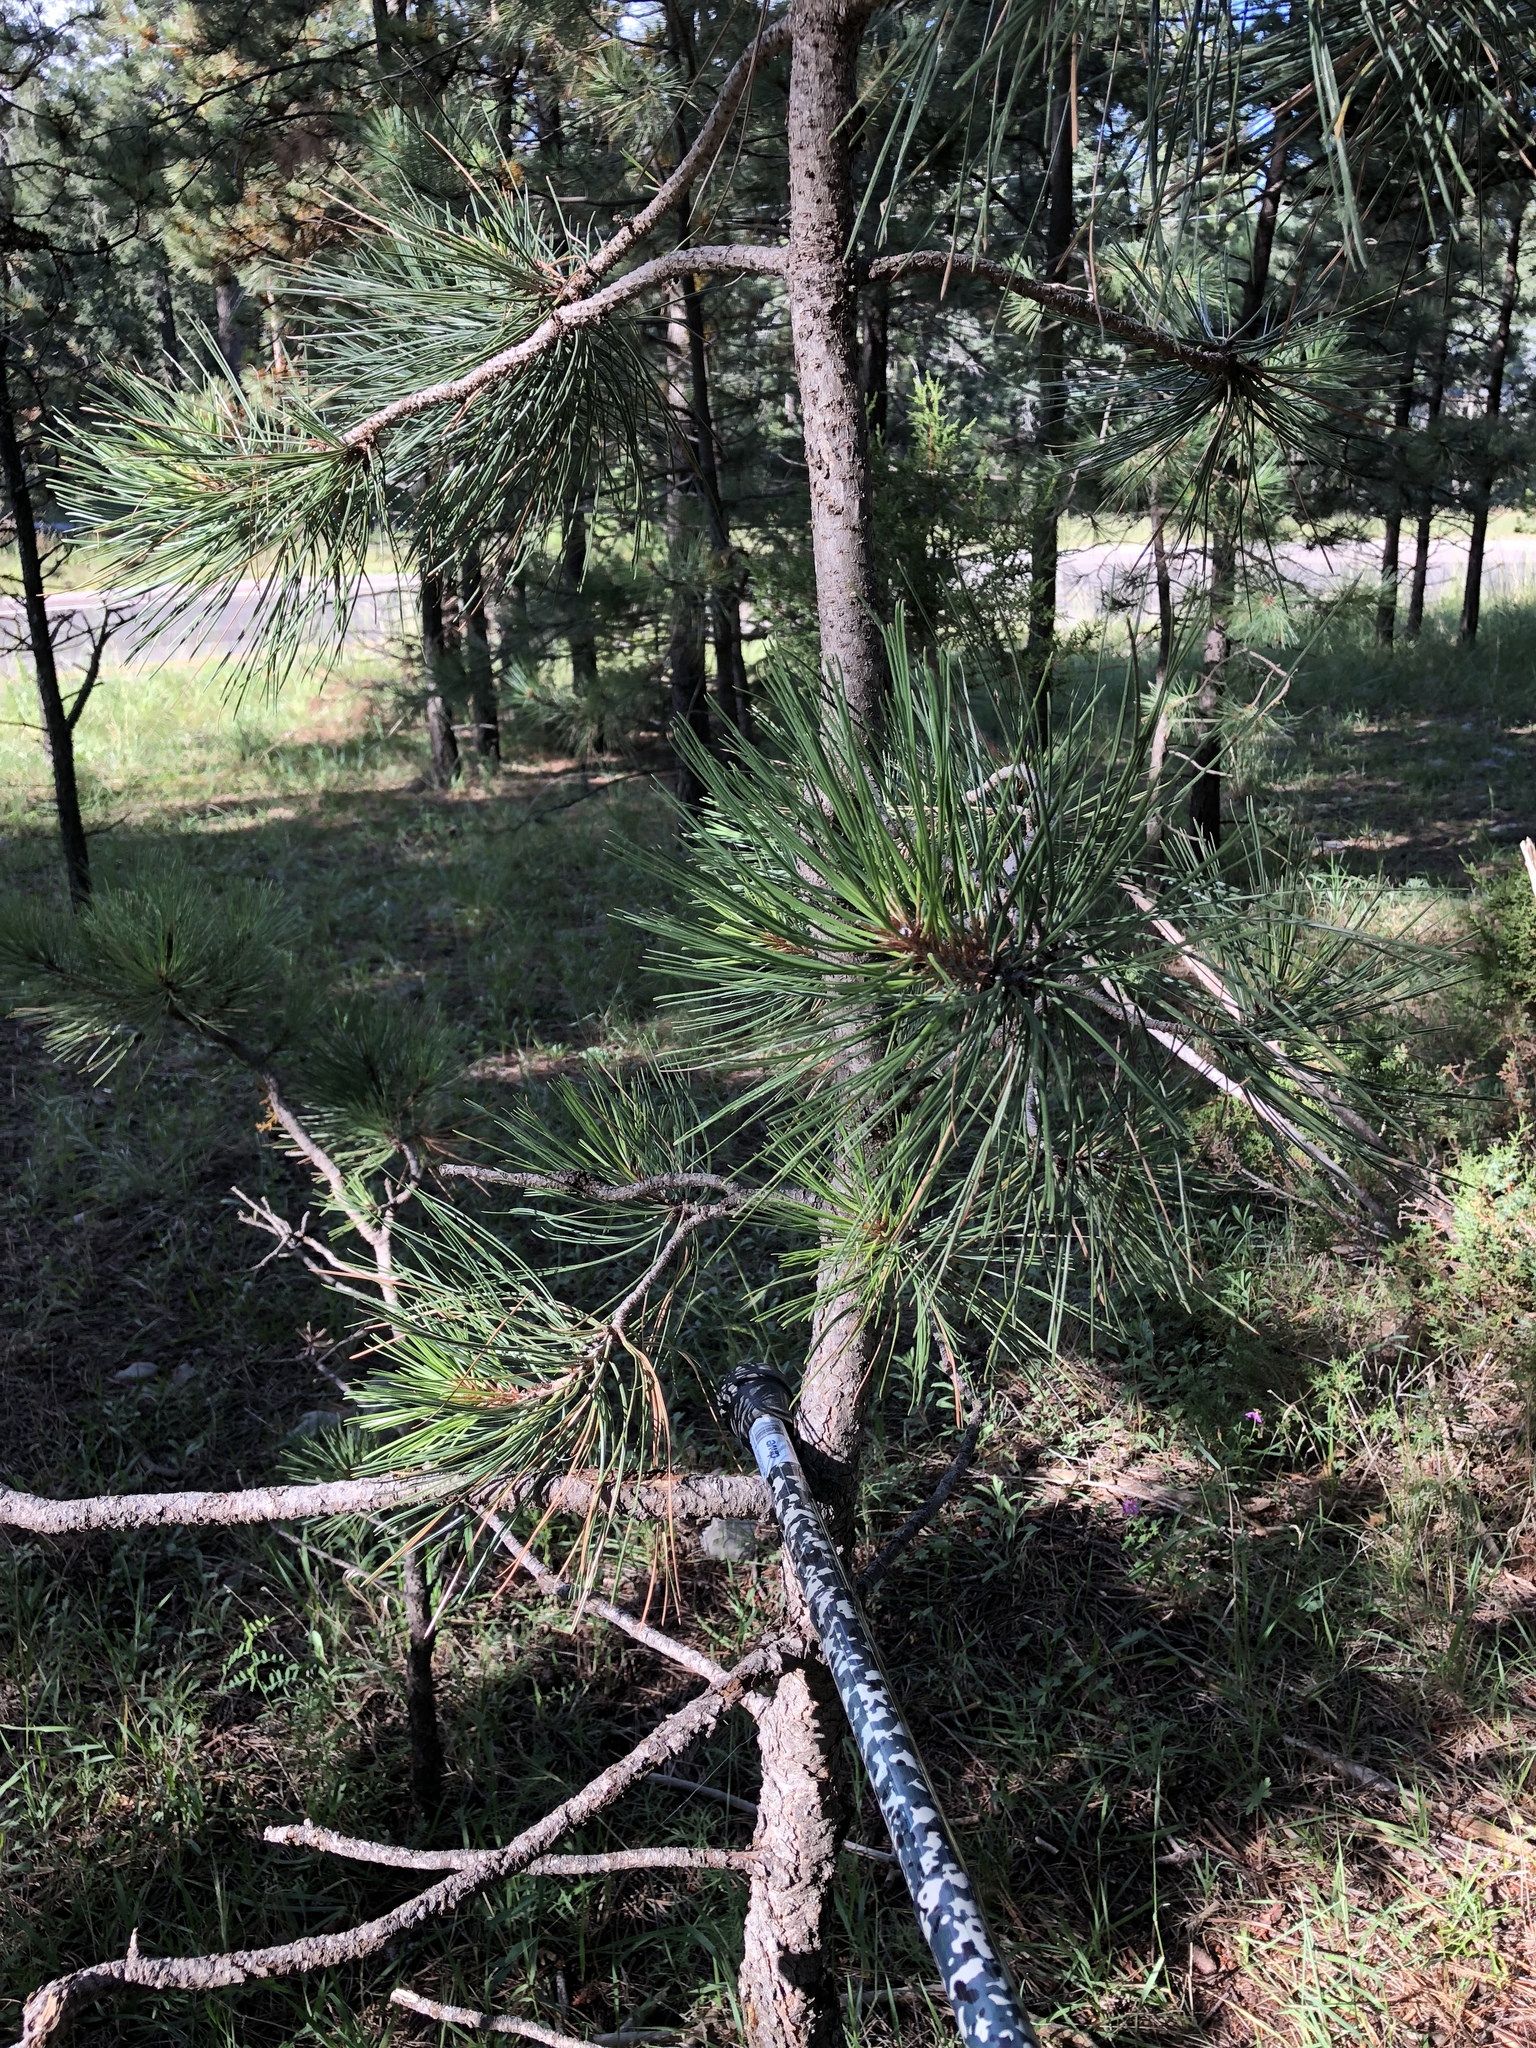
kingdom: Plantae
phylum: Tracheophyta
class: Pinopsida
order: Pinales
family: Pinaceae
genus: Pinus
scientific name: Pinus ponderosa
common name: Western yellow-pine
